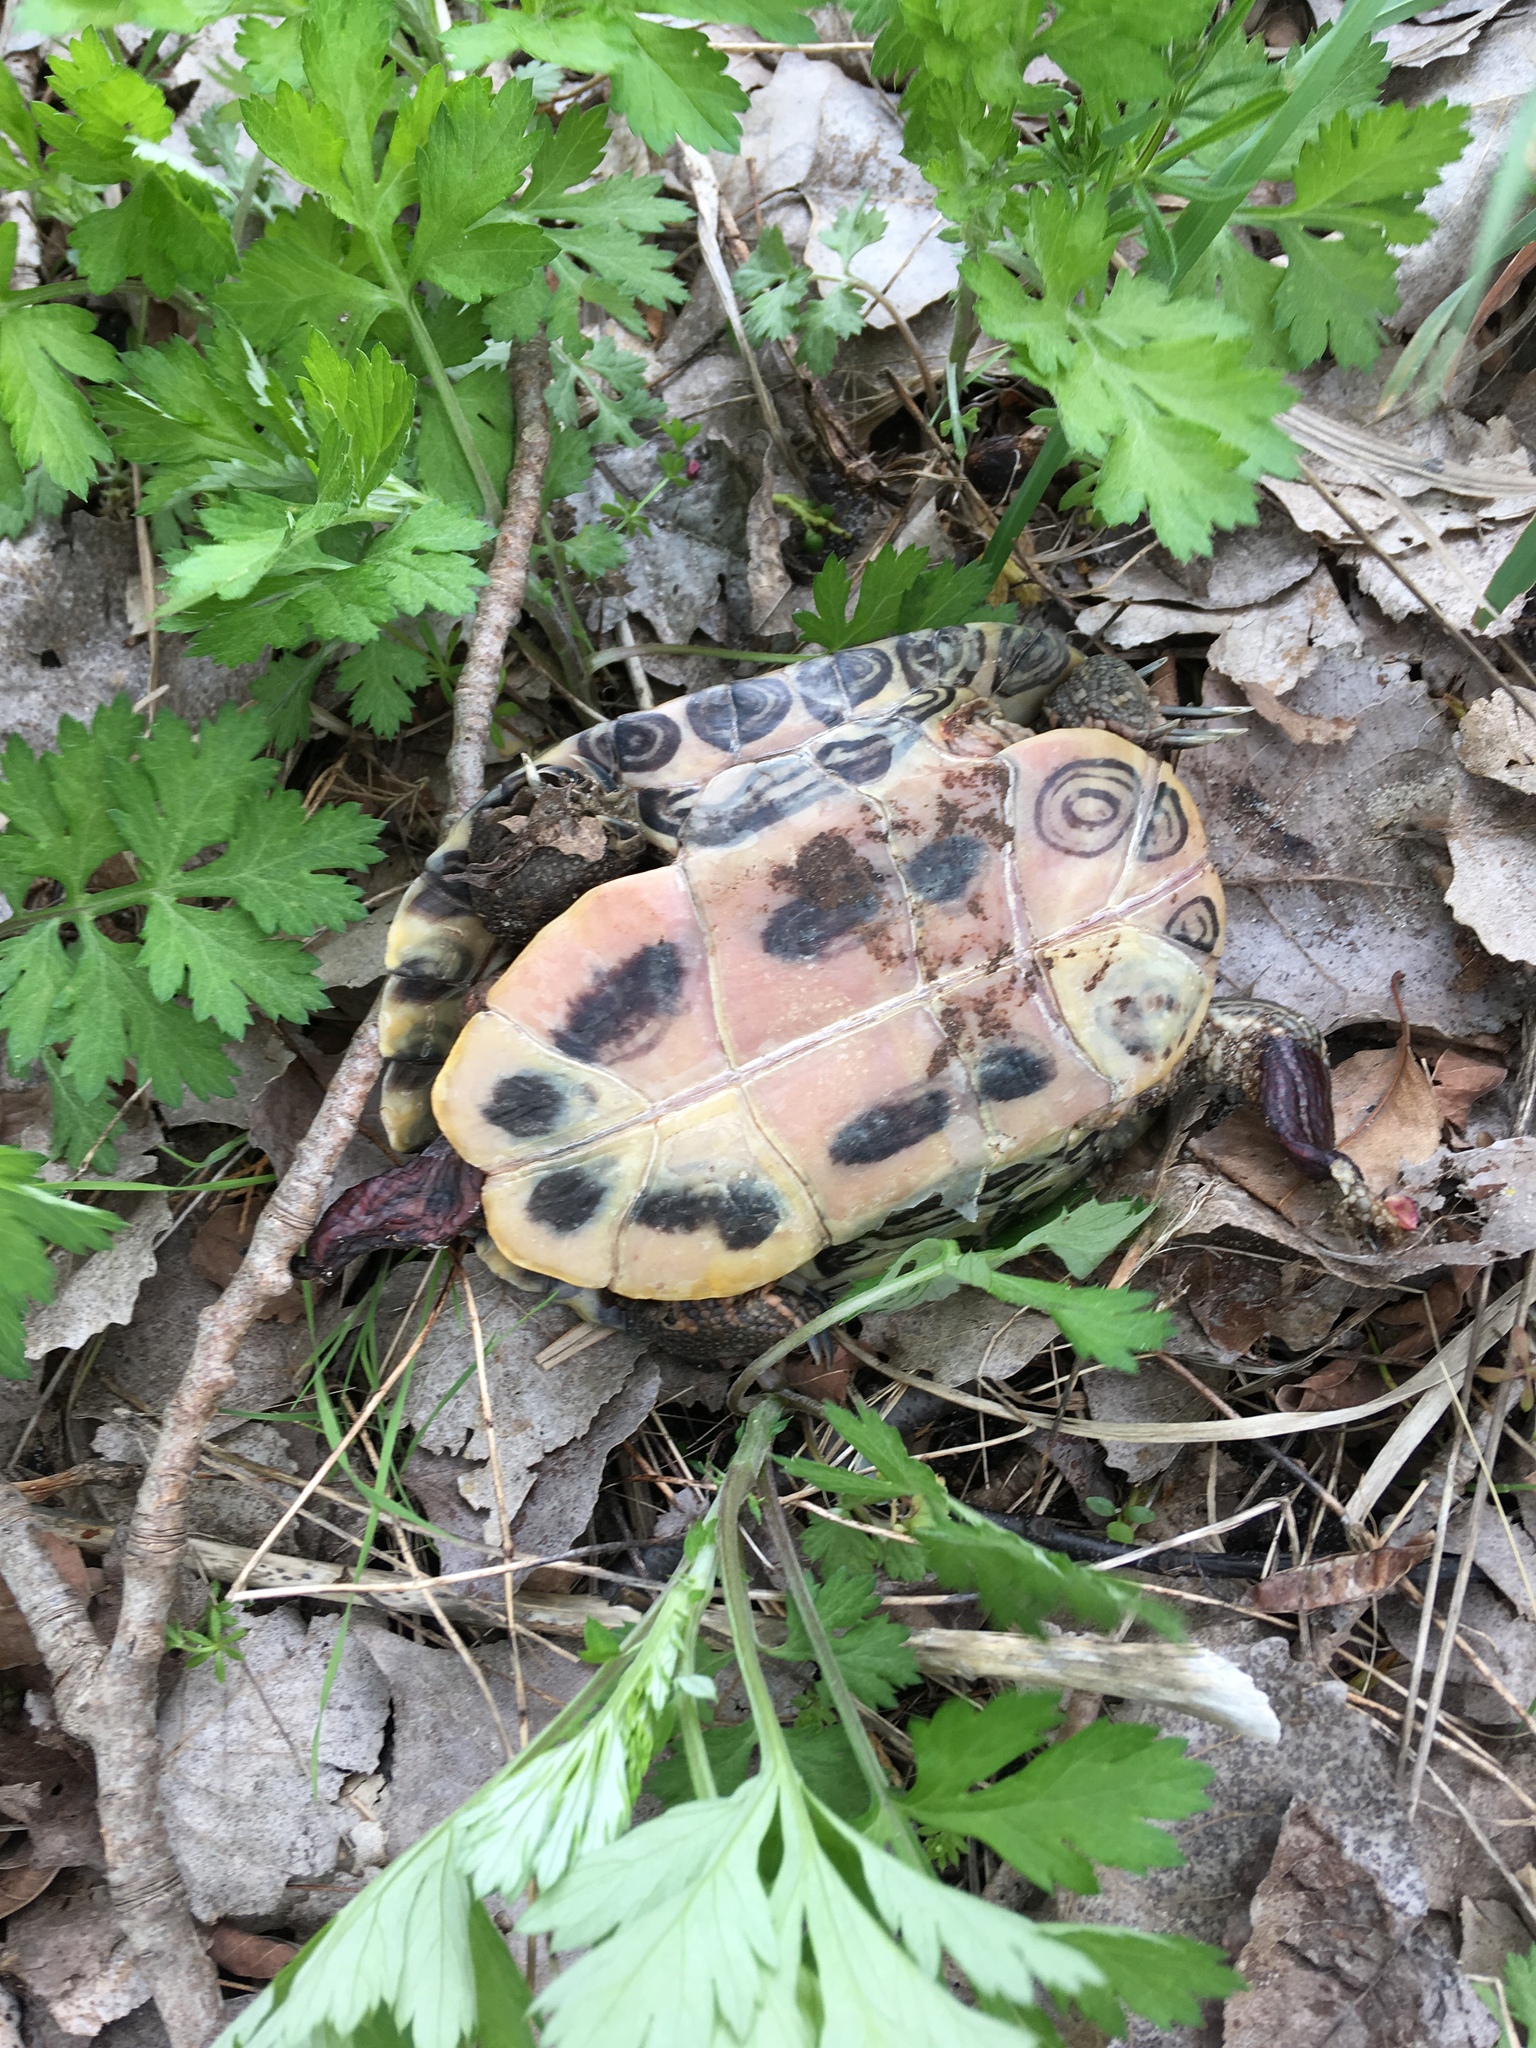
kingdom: Animalia
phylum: Chordata
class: Testudines
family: Emydidae
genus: Trachemys
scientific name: Trachemys scripta
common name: Slider
